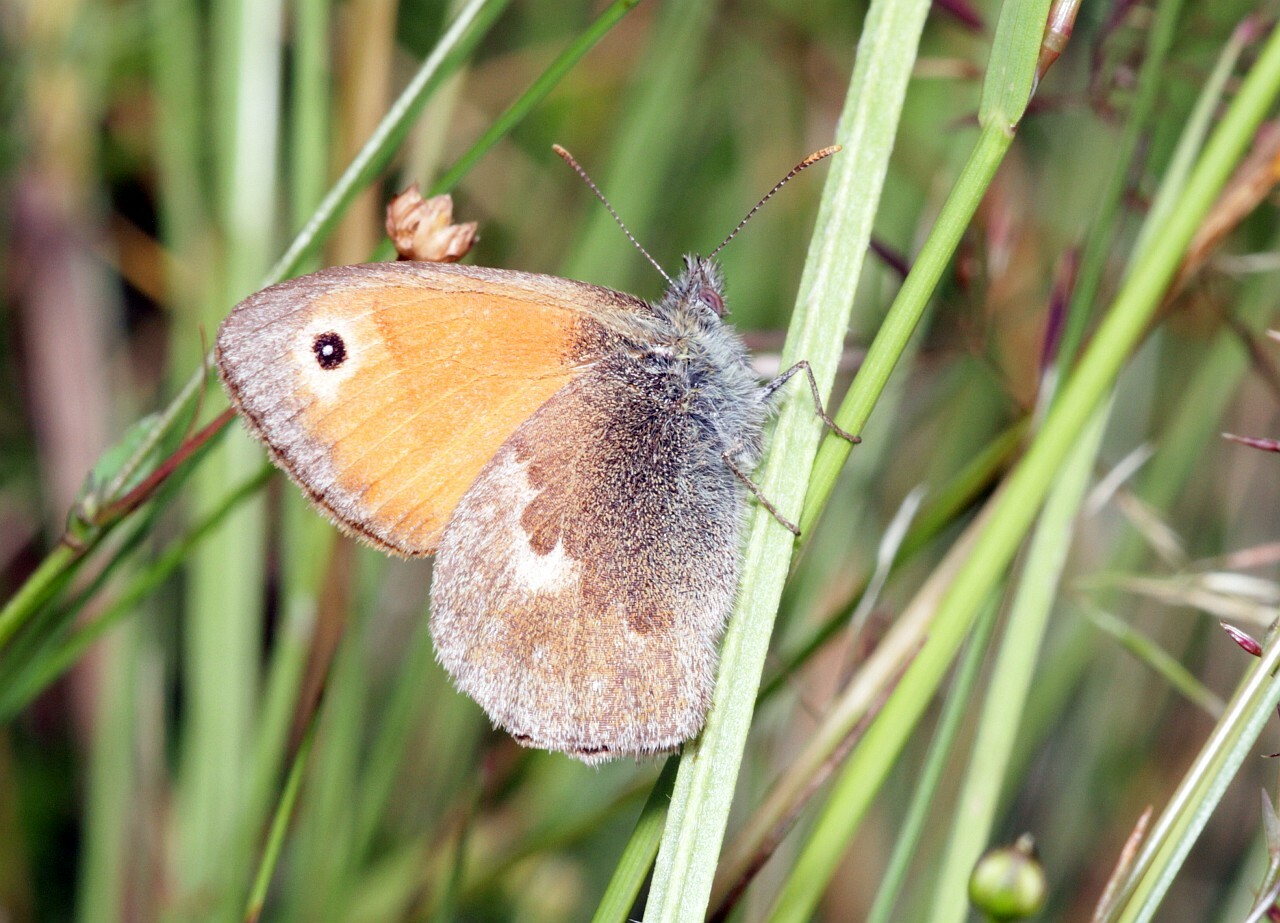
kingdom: Animalia
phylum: Arthropoda
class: Insecta
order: Lepidoptera
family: Nymphalidae
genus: Coenonympha
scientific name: Coenonympha pamphilus
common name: Small heath
